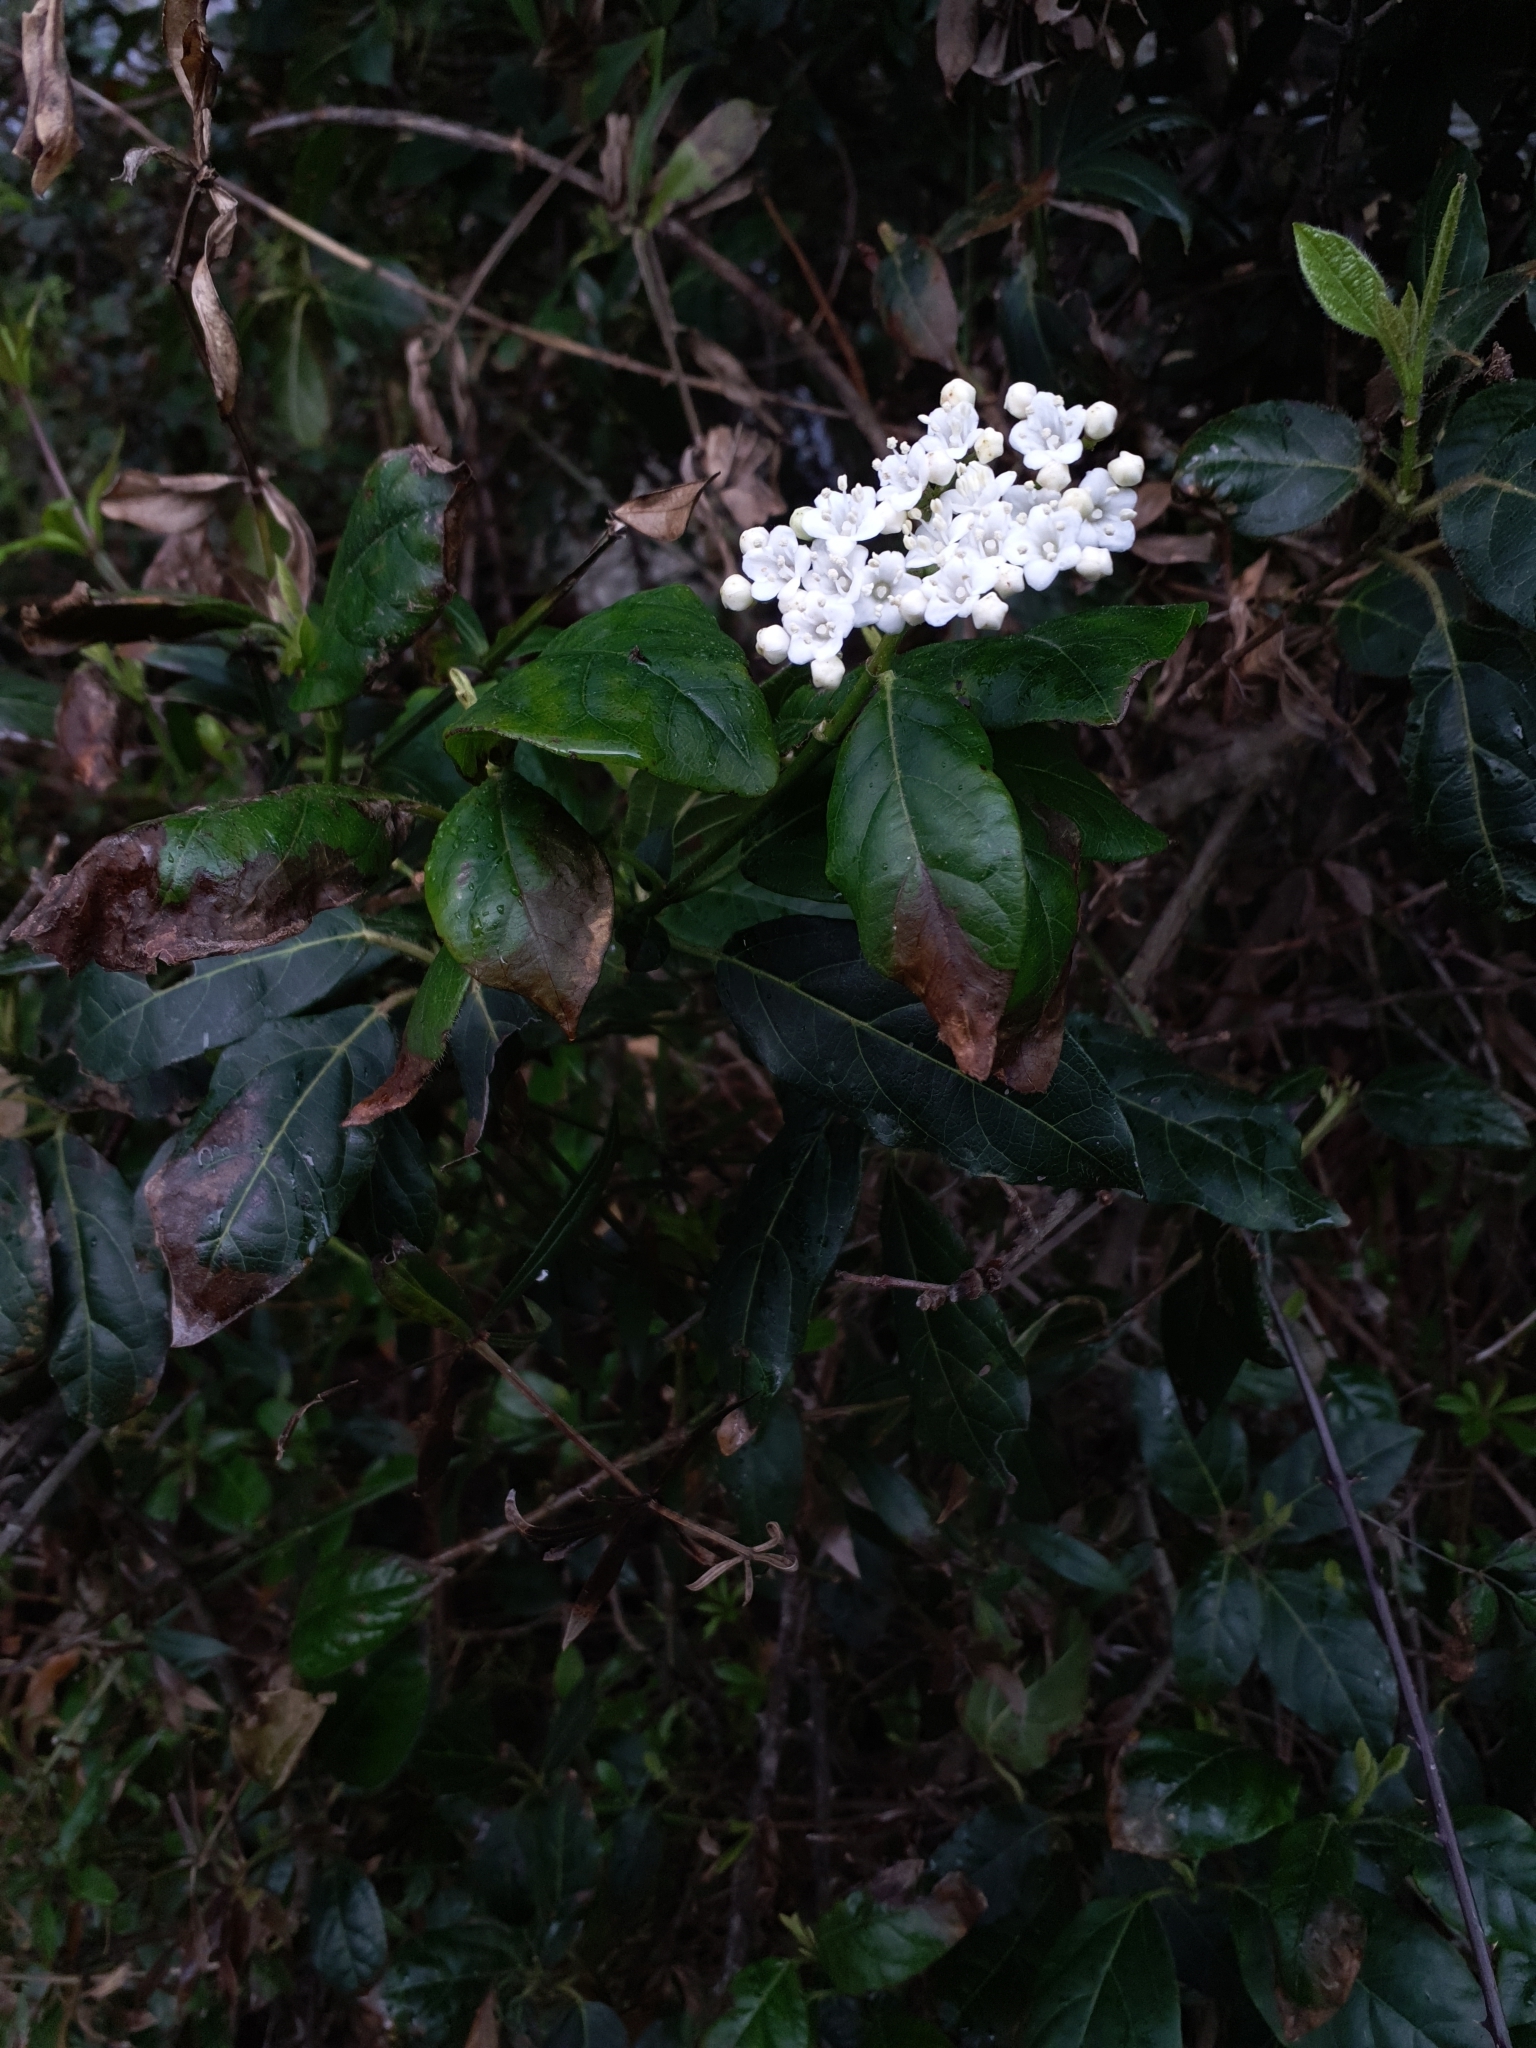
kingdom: Plantae
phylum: Tracheophyta
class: Magnoliopsida
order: Dipsacales
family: Viburnaceae
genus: Viburnum
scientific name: Viburnum tinus
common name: Laurustinus
